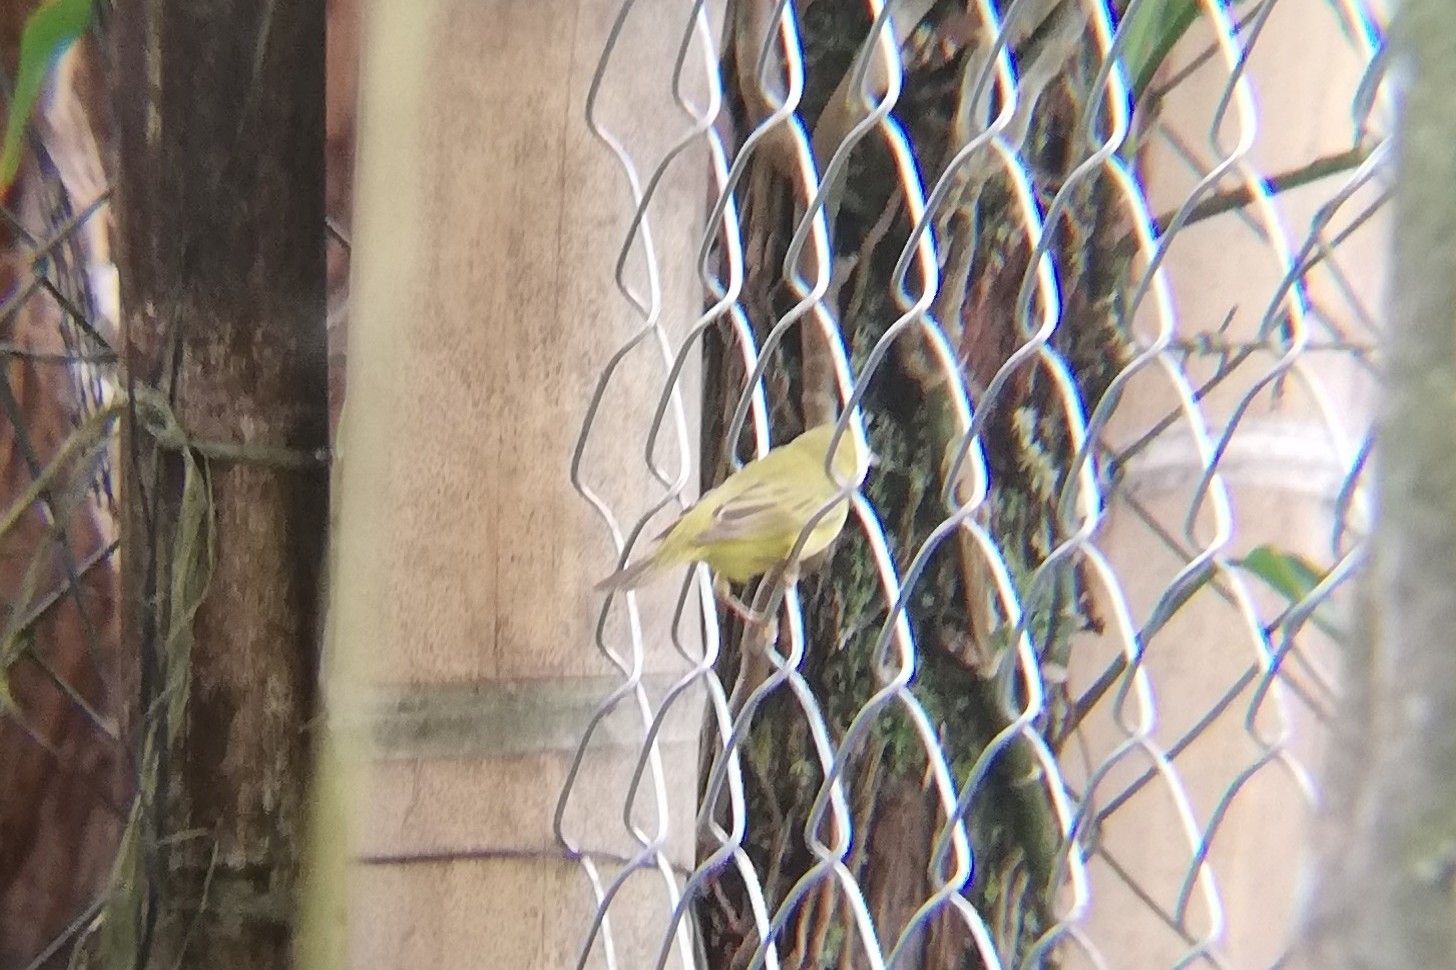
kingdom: Animalia
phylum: Chordata
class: Aves
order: Passeriformes
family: Parulidae
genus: Setophaga
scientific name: Setophaga petechia
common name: Yellow warbler
